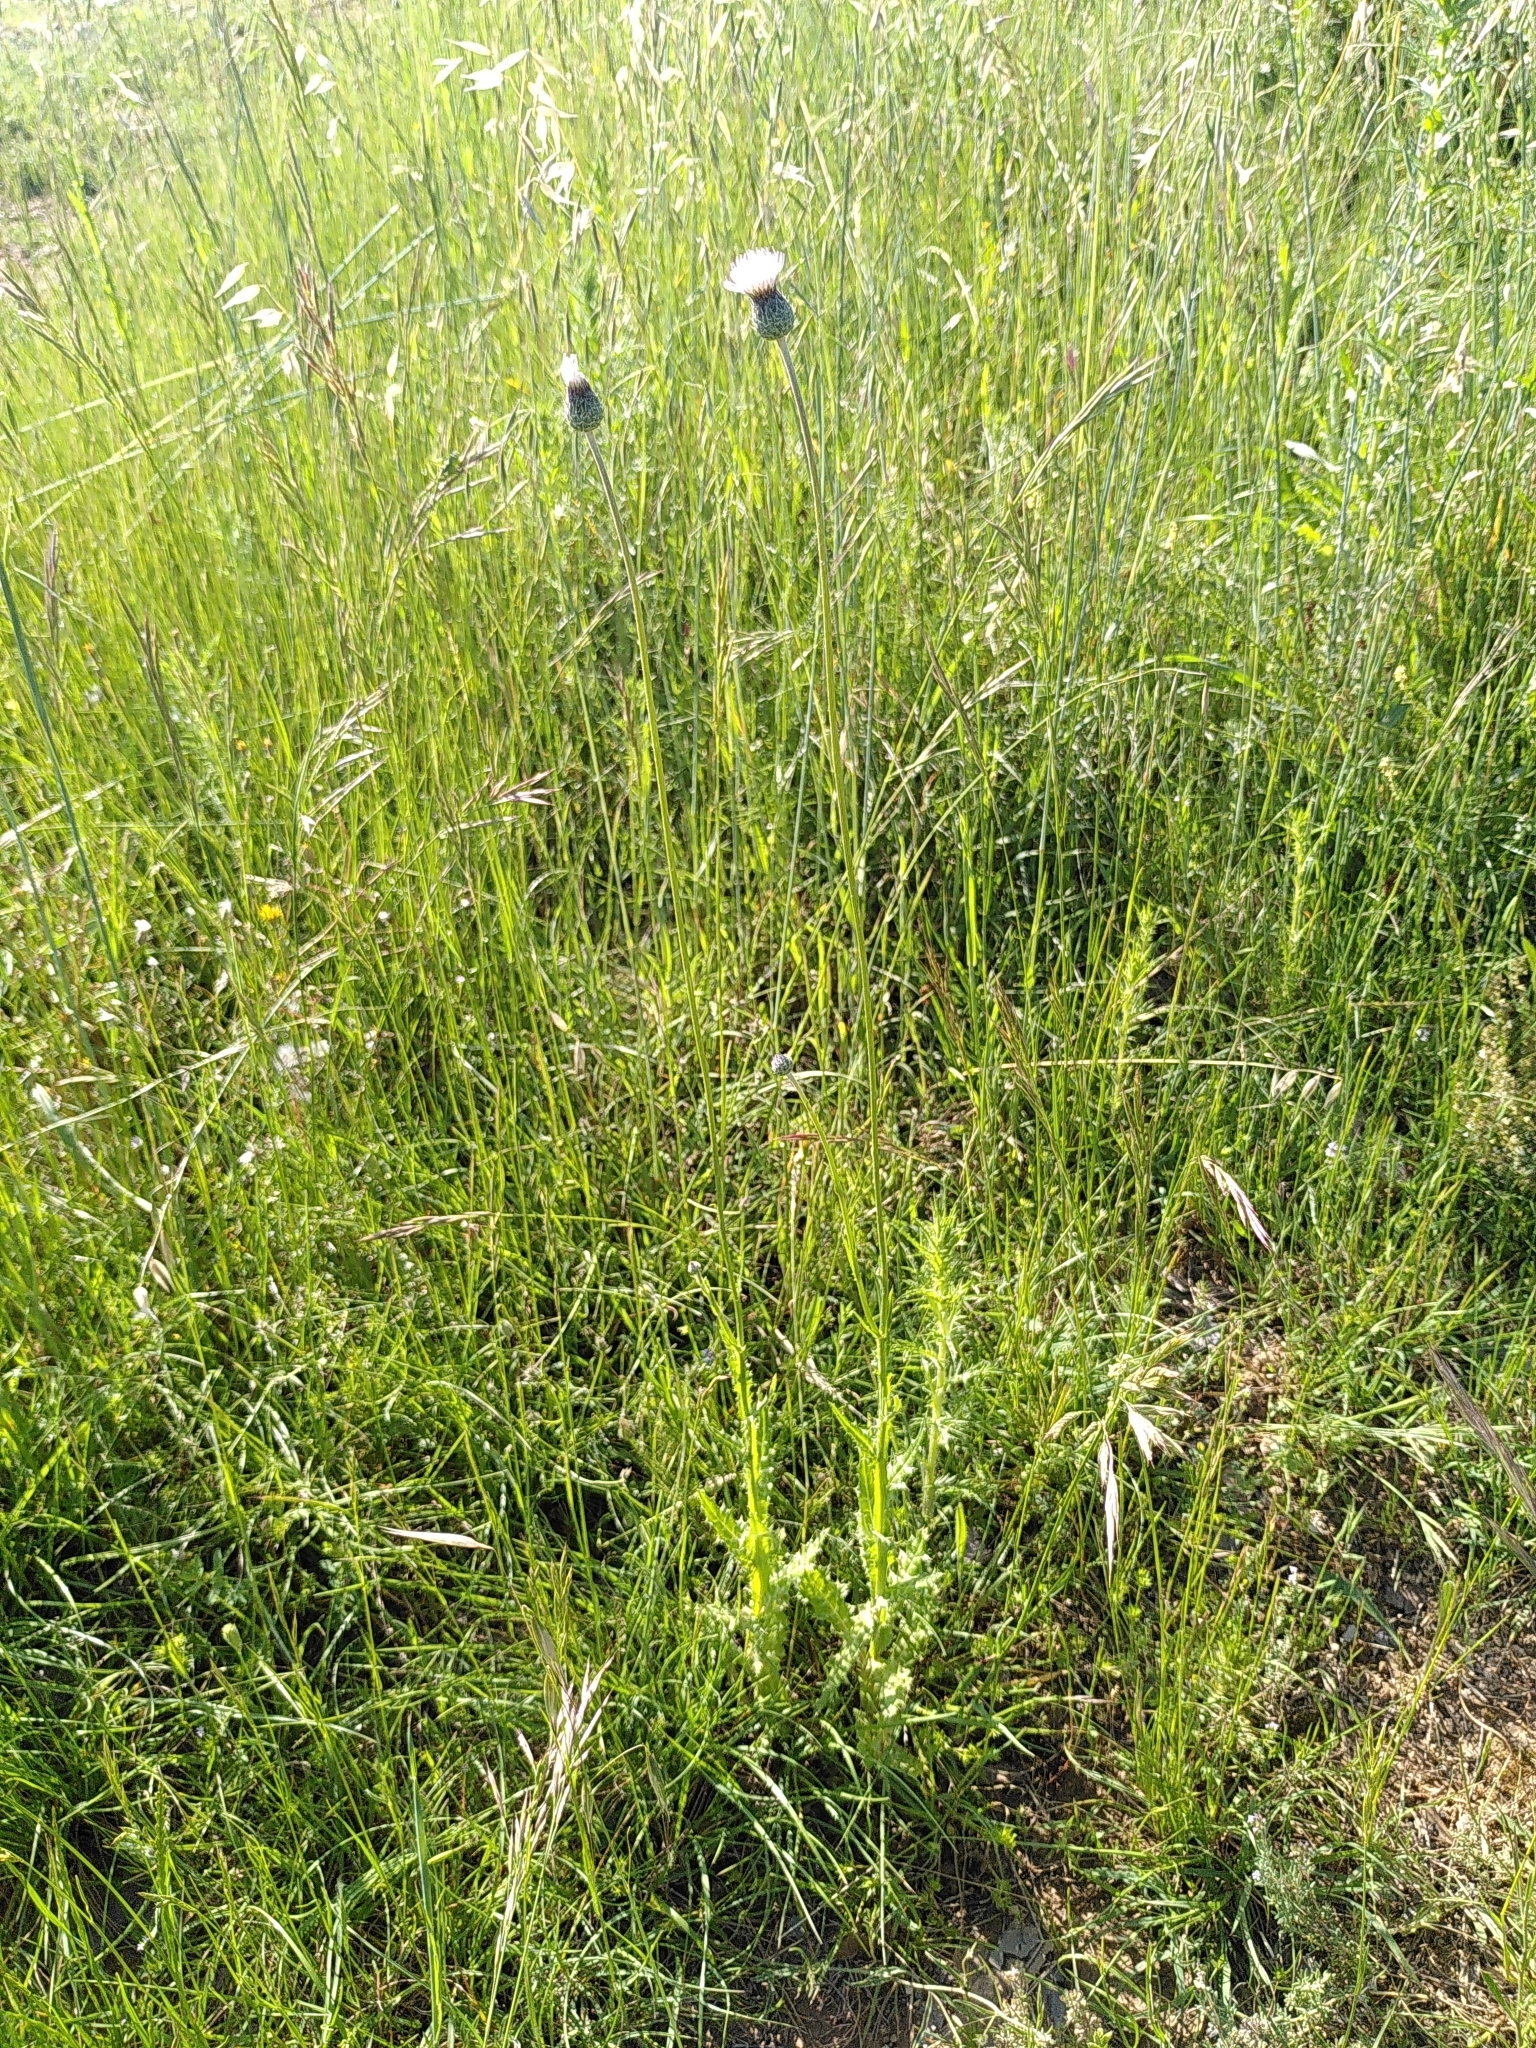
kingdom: Plantae
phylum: Tracheophyta
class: Magnoliopsida
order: Asterales
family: Asteraceae
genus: Tyrimnus
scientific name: Tyrimnus leucographus
